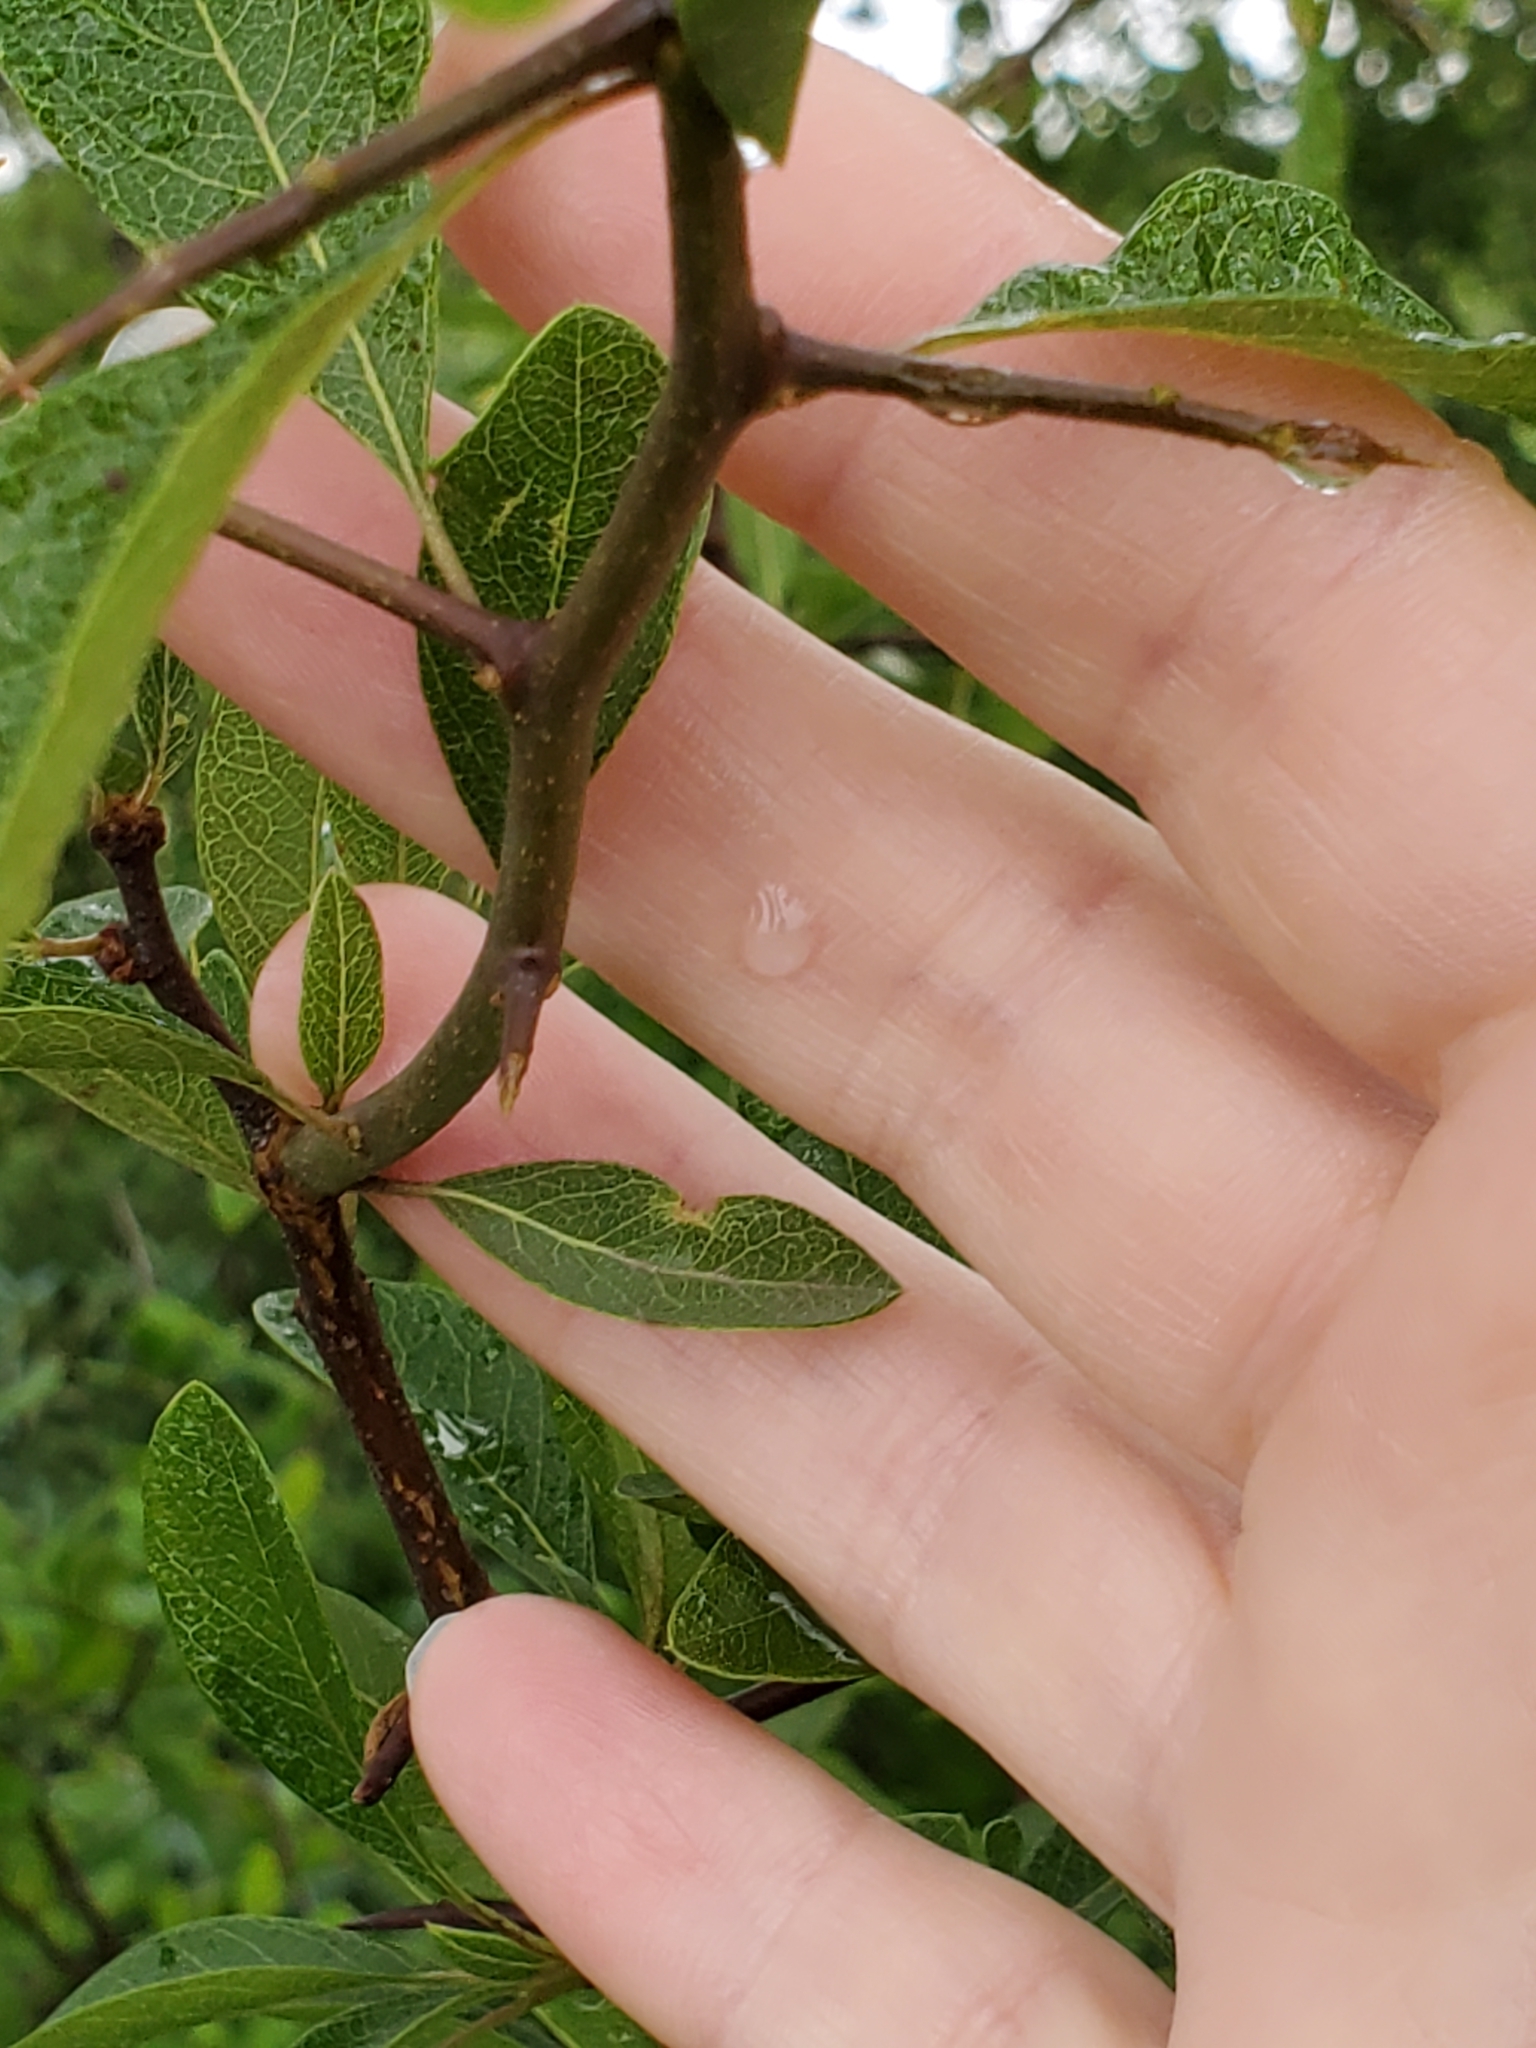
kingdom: Plantae
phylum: Tracheophyta
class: Magnoliopsida
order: Ericales
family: Sapotaceae
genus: Sideroxylon
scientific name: Sideroxylon lanuginosum
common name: Chittamwood
